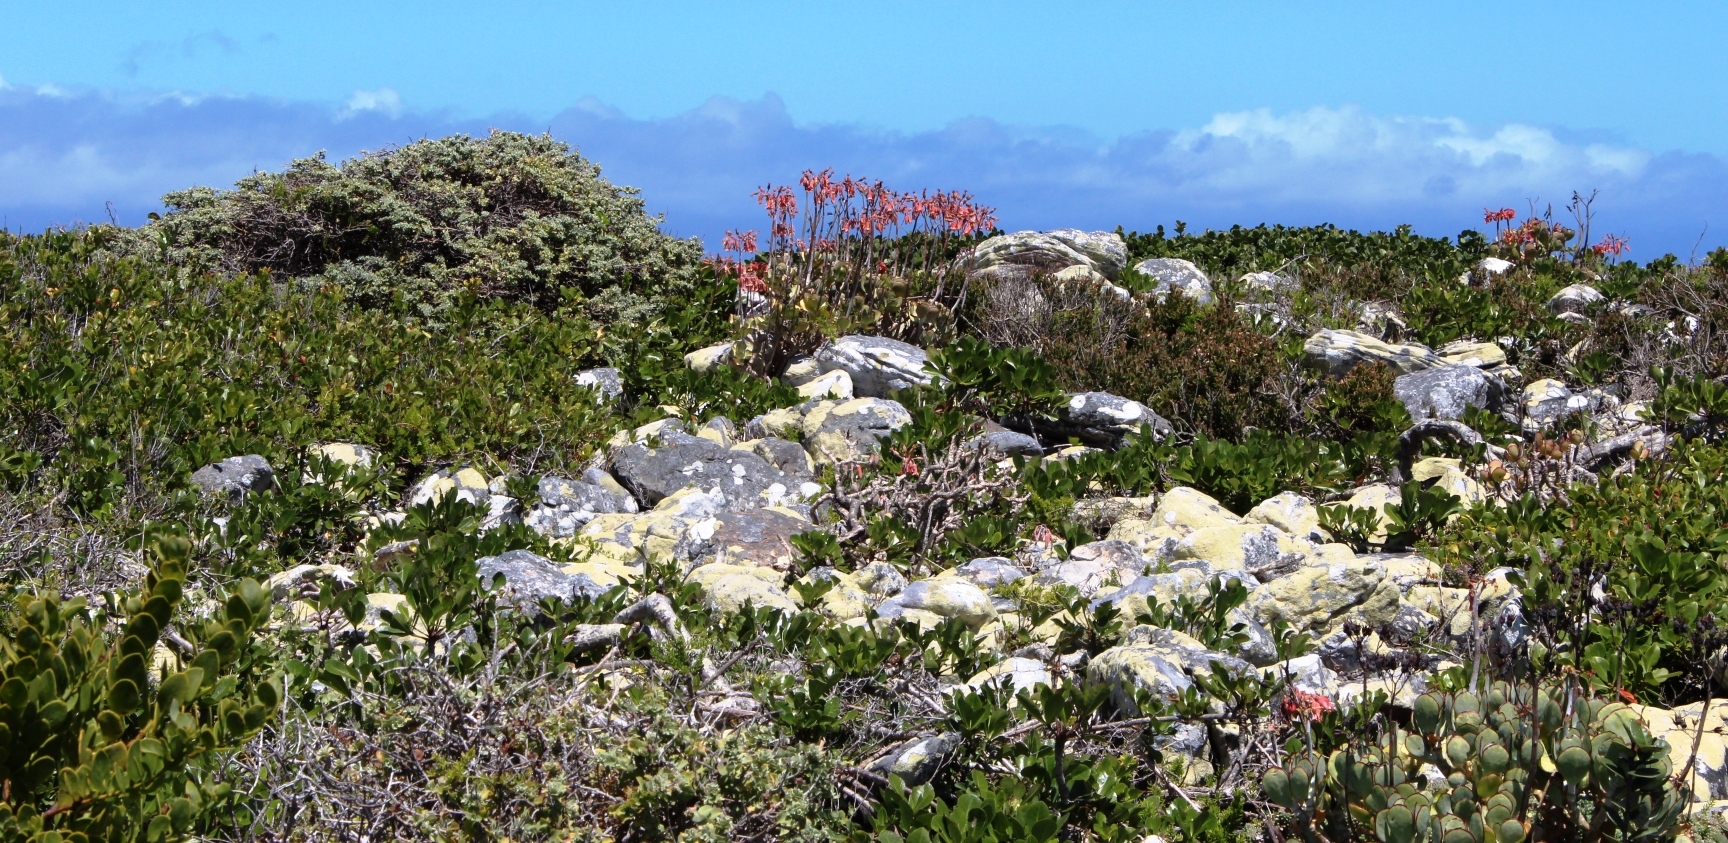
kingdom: Plantae
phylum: Tracheophyta
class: Magnoliopsida
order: Saxifragales
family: Crassulaceae
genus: Cotyledon
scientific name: Cotyledon orbiculata
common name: Pig's ear
